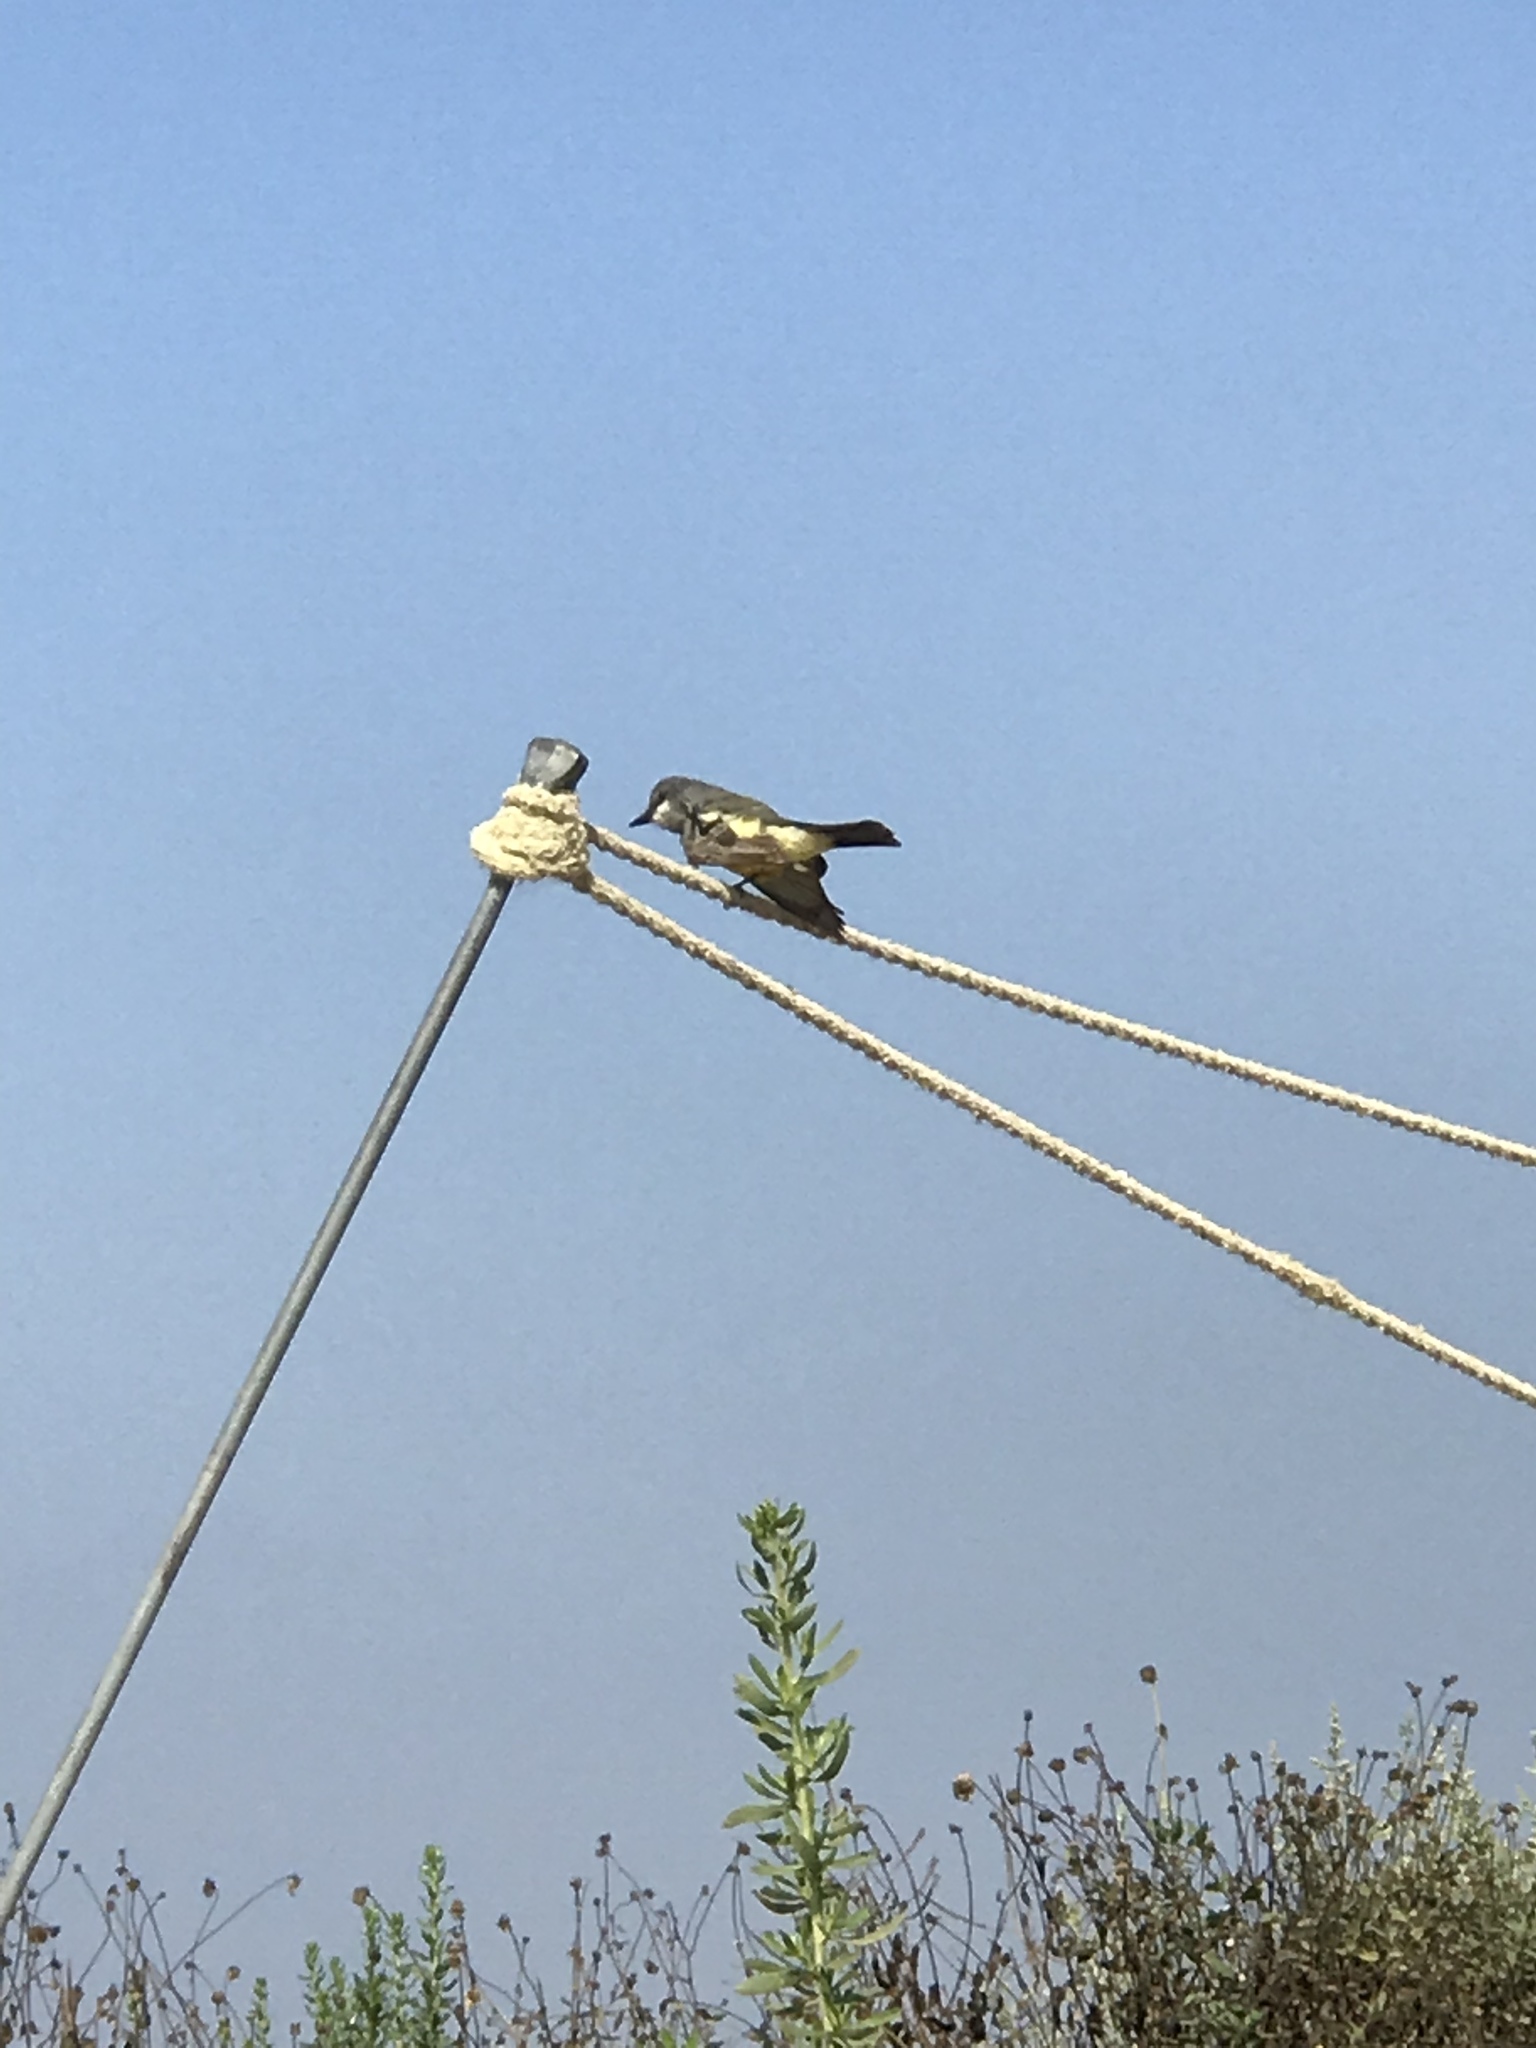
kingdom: Animalia
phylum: Chordata
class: Aves
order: Passeriformes
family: Tyrannidae
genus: Tyrannus
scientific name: Tyrannus vociferans
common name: Cassin's kingbird
